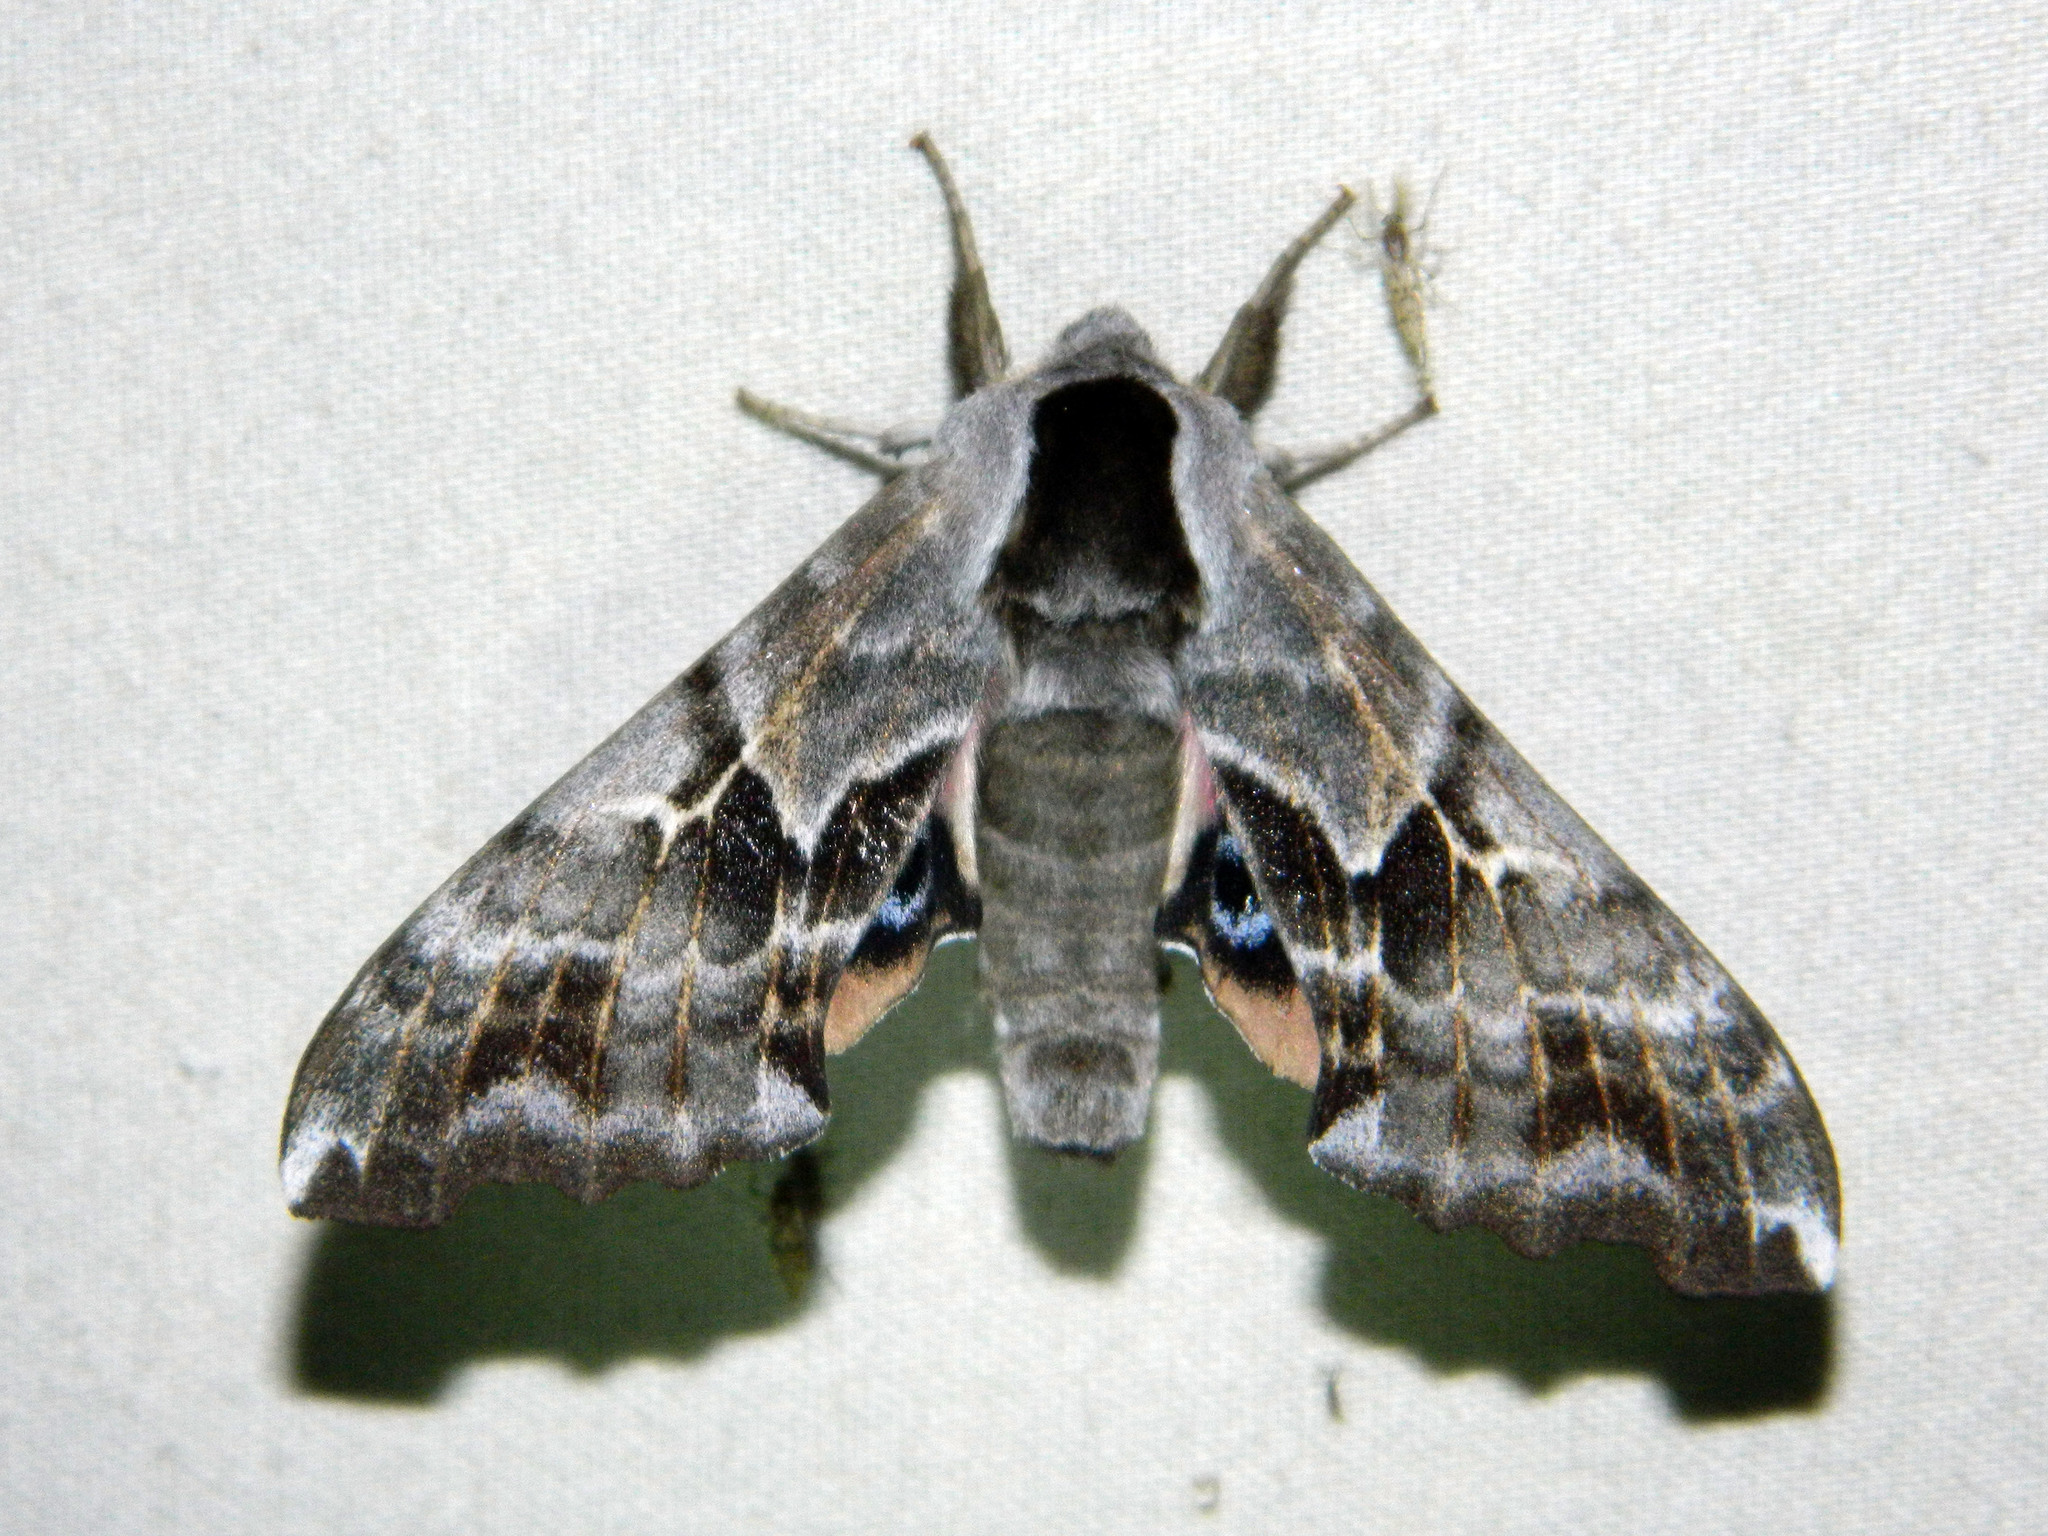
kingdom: Animalia
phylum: Arthropoda
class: Insecta
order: Lepidoptera
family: Sphingidae
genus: Smerinthus
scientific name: Smerinthus cerisyi
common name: Cerisy's sphinx moth
